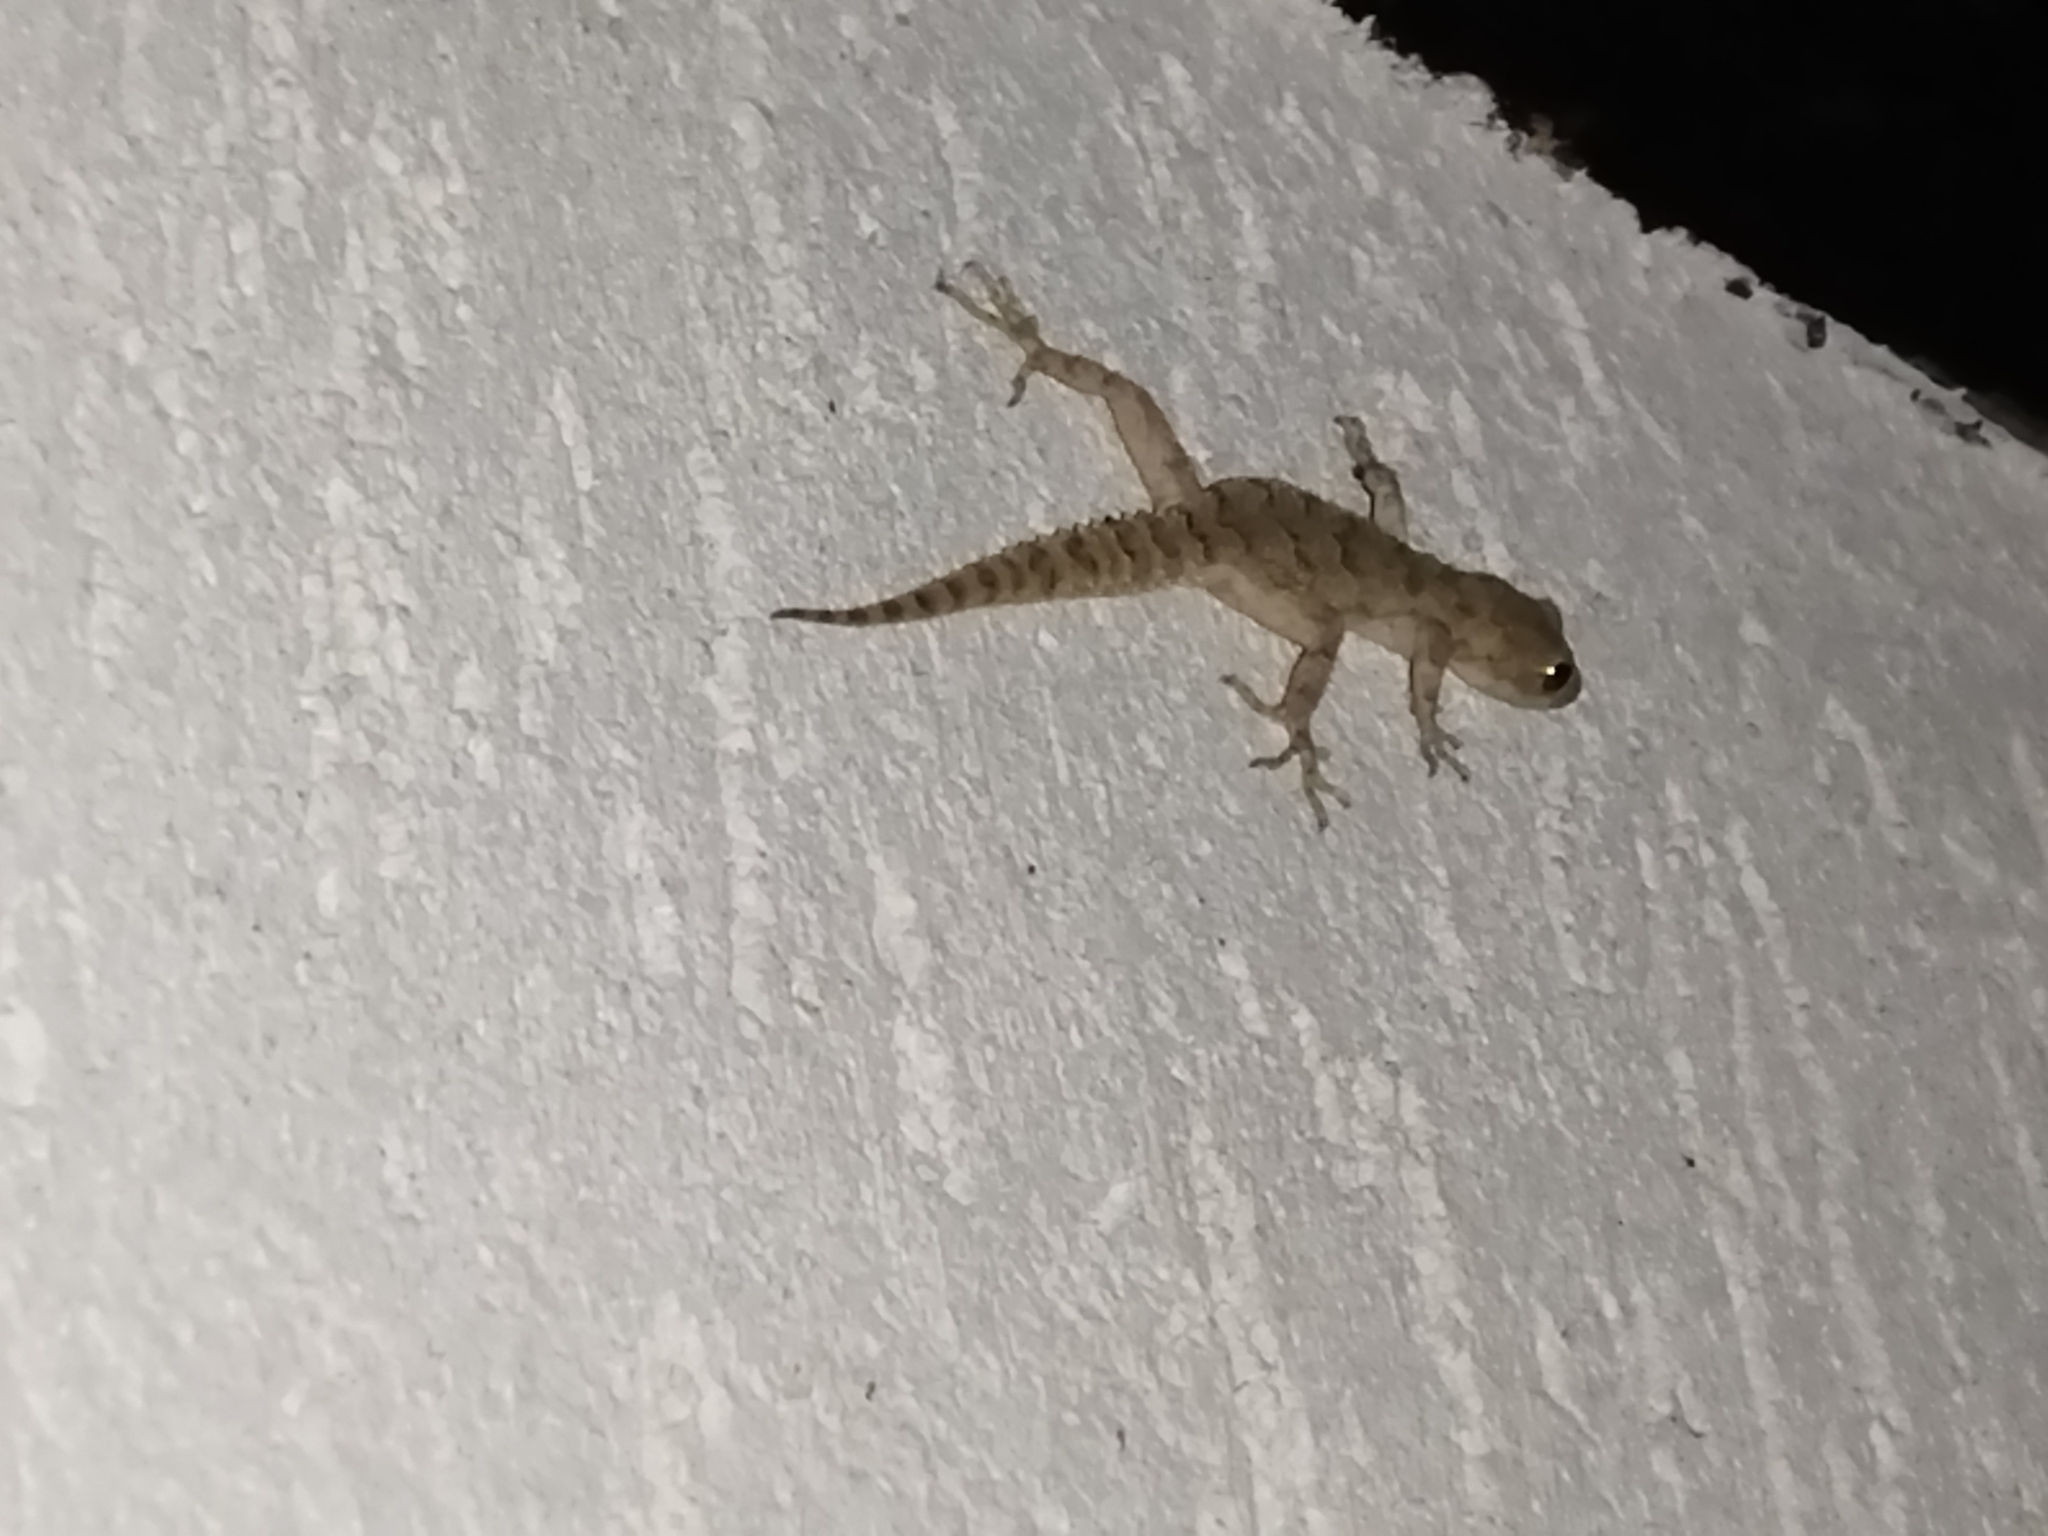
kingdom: Animalia
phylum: Chordata
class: Squamata
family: Gekkonidae
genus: Mediodactylus
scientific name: Mediodactylus kotschyi
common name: Kotschy's gecko
